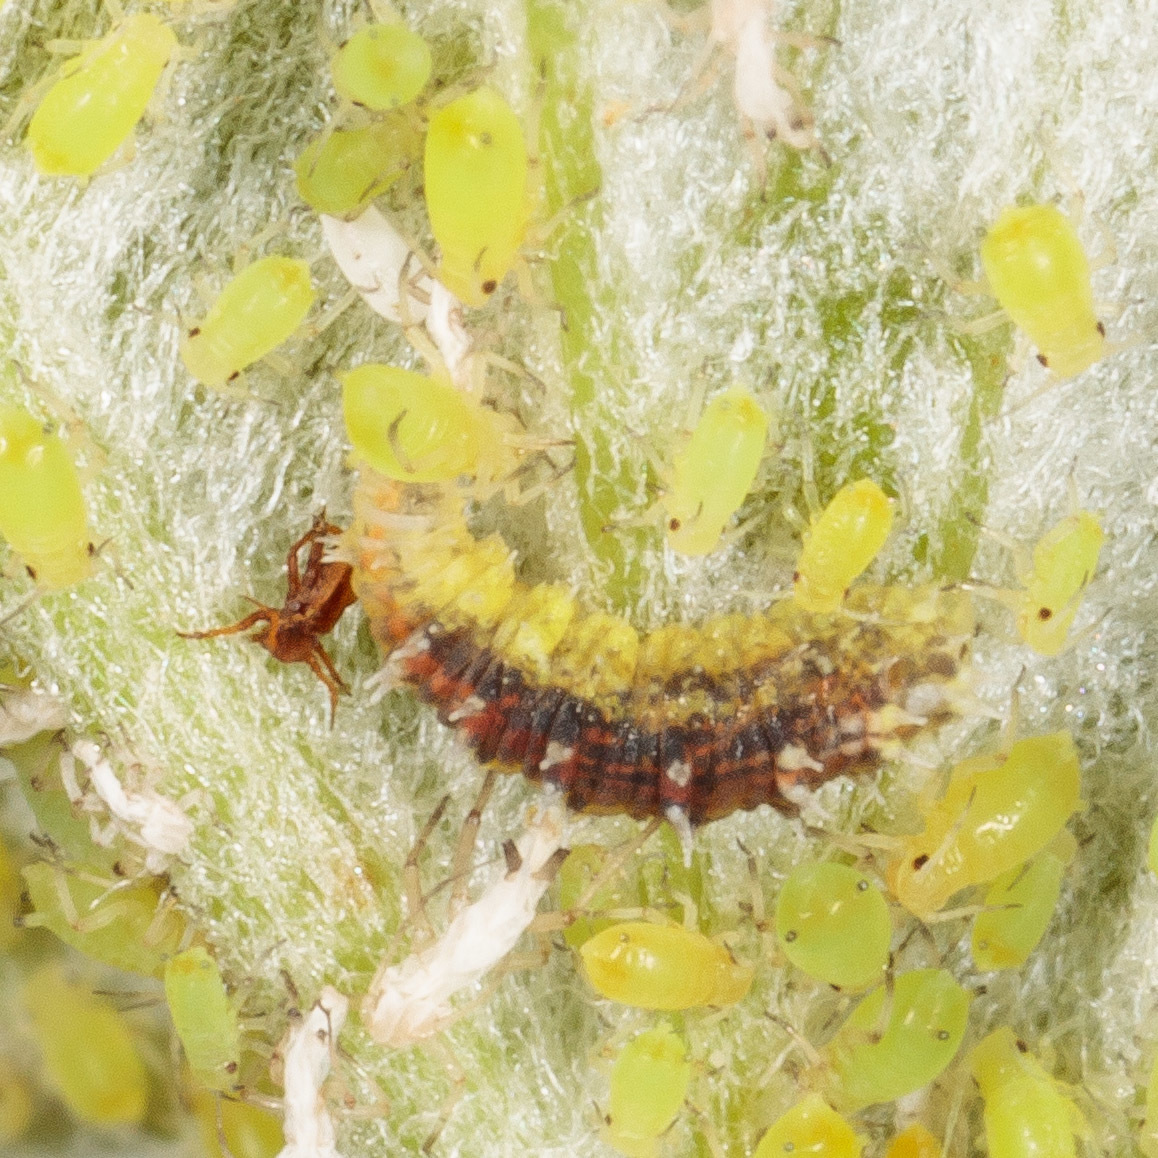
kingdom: Animalia
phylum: Arthropoda
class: Insecta
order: Diptera
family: Syrphidae
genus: Dioprosopa
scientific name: Dioprosopa clavatus
